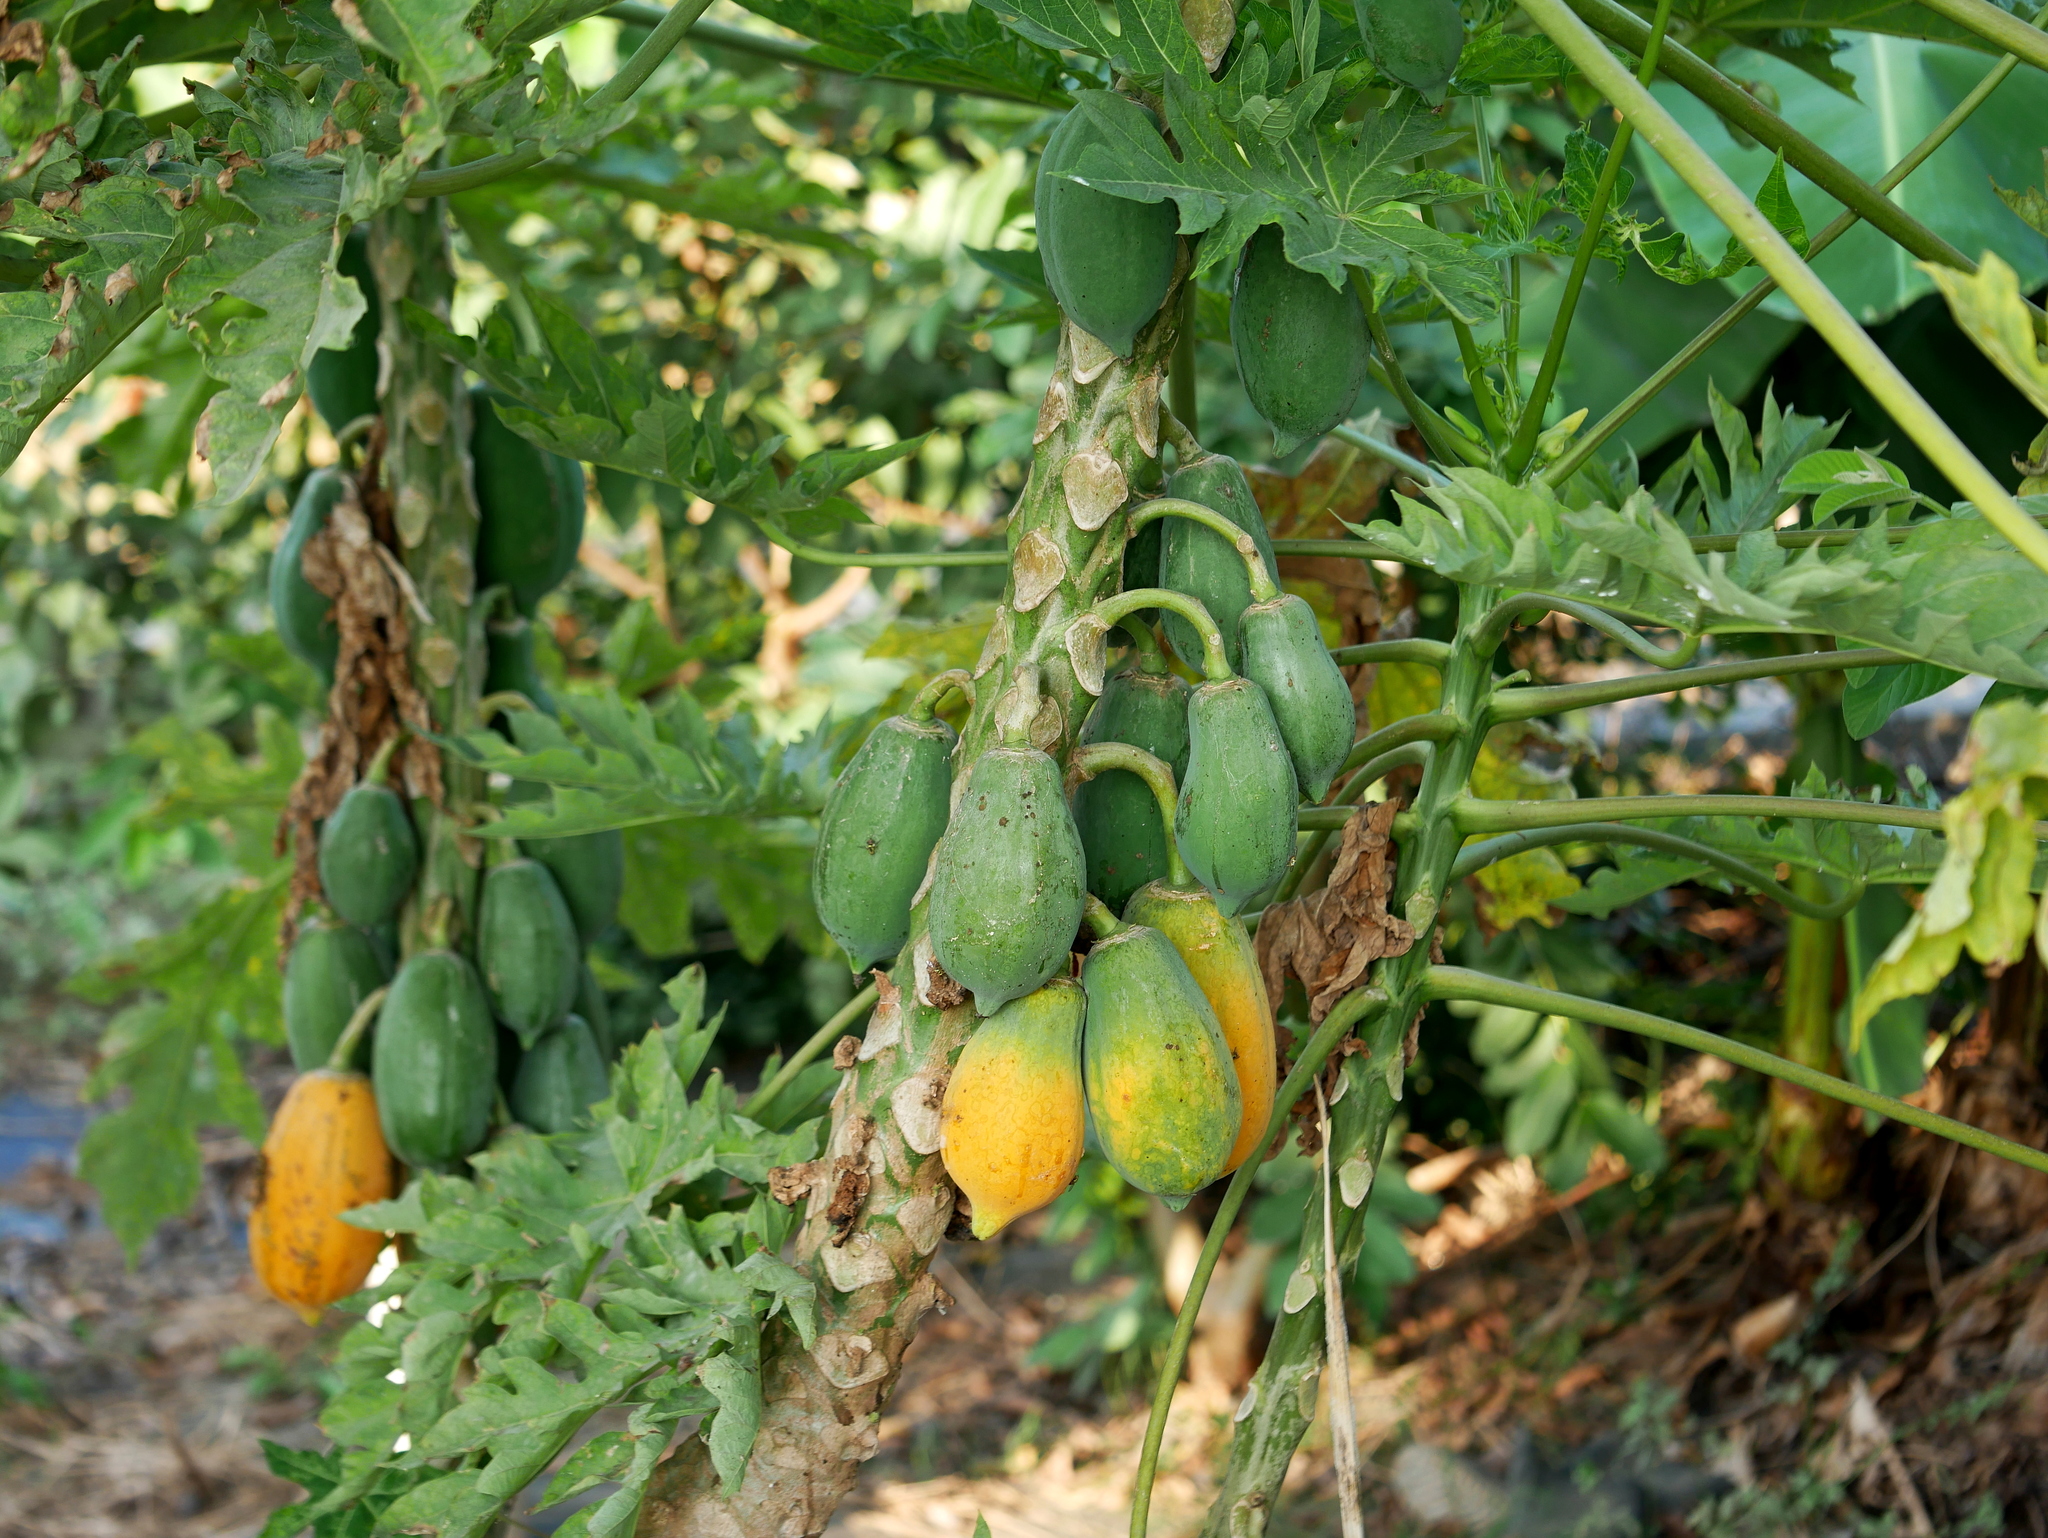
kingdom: Plantae
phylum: Tracheophyta
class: Magnoliopsida
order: Brassicales
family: Caricaceae
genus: Carica
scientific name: Carica papaya
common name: Papaya
